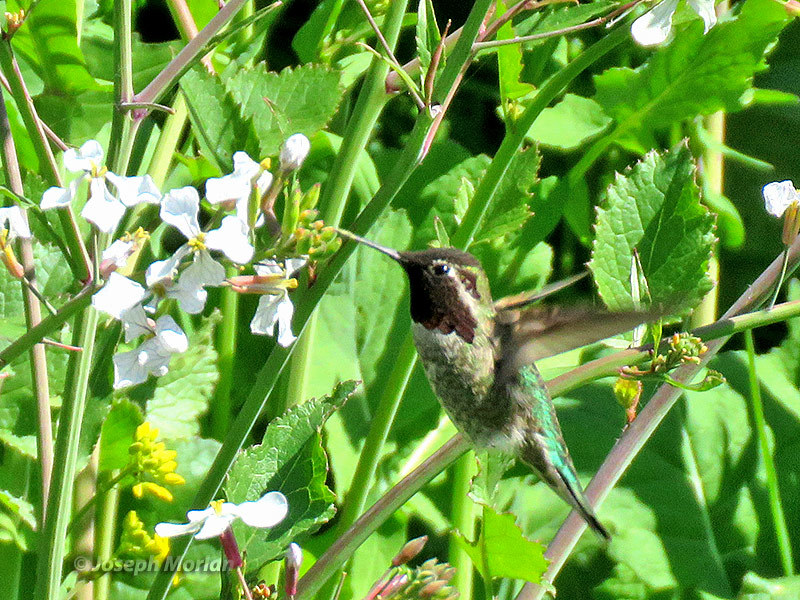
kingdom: Animalia
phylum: Chordata
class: Aves
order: Apodiformes
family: Trochilidae
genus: Calypte
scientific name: Calypte anna
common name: Anna's hummingbird
